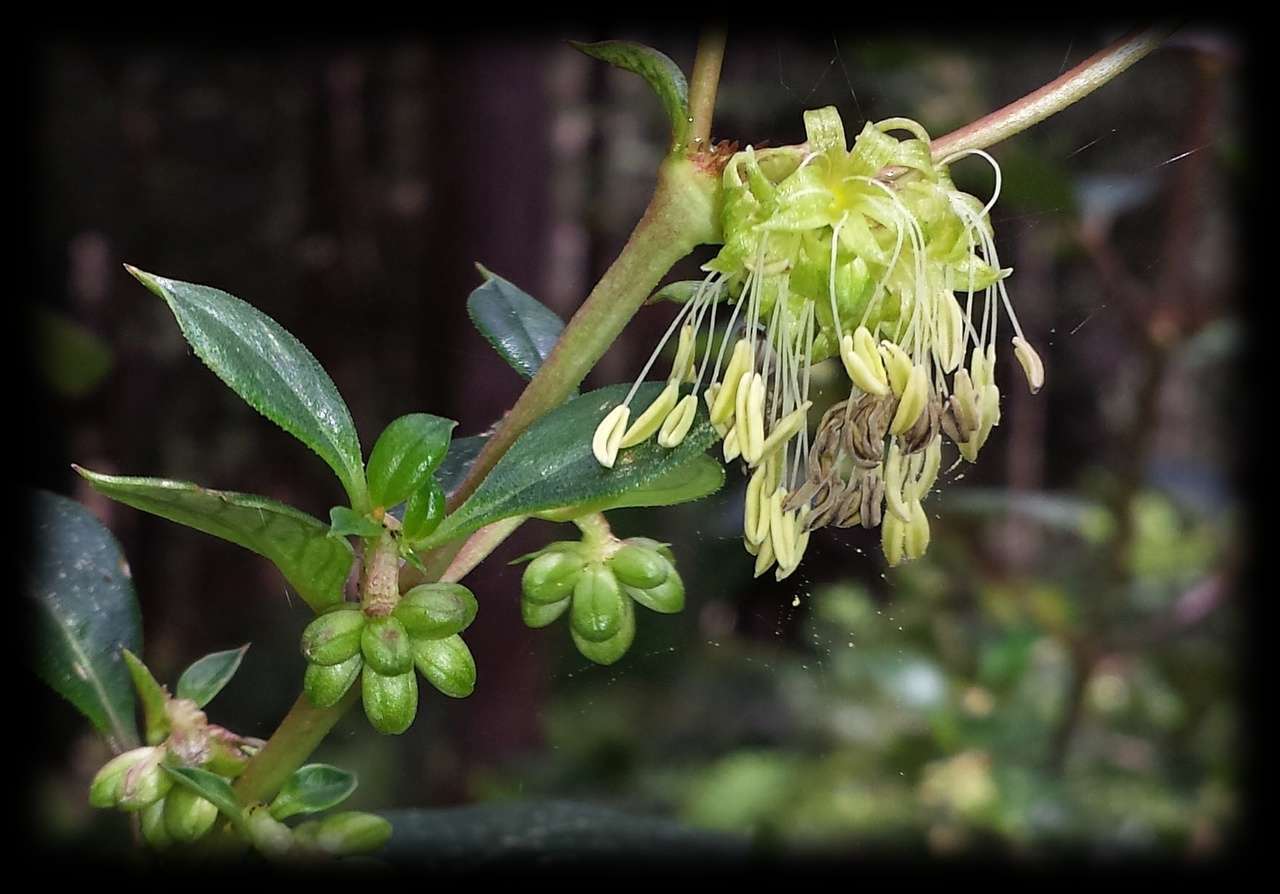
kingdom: Plantae
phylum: Tracheophyta
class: Magnoliopsida
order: Gentianales
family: Rubiaceae
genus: Coprosma
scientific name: Coprosma hirtella
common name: Rough coprosma
